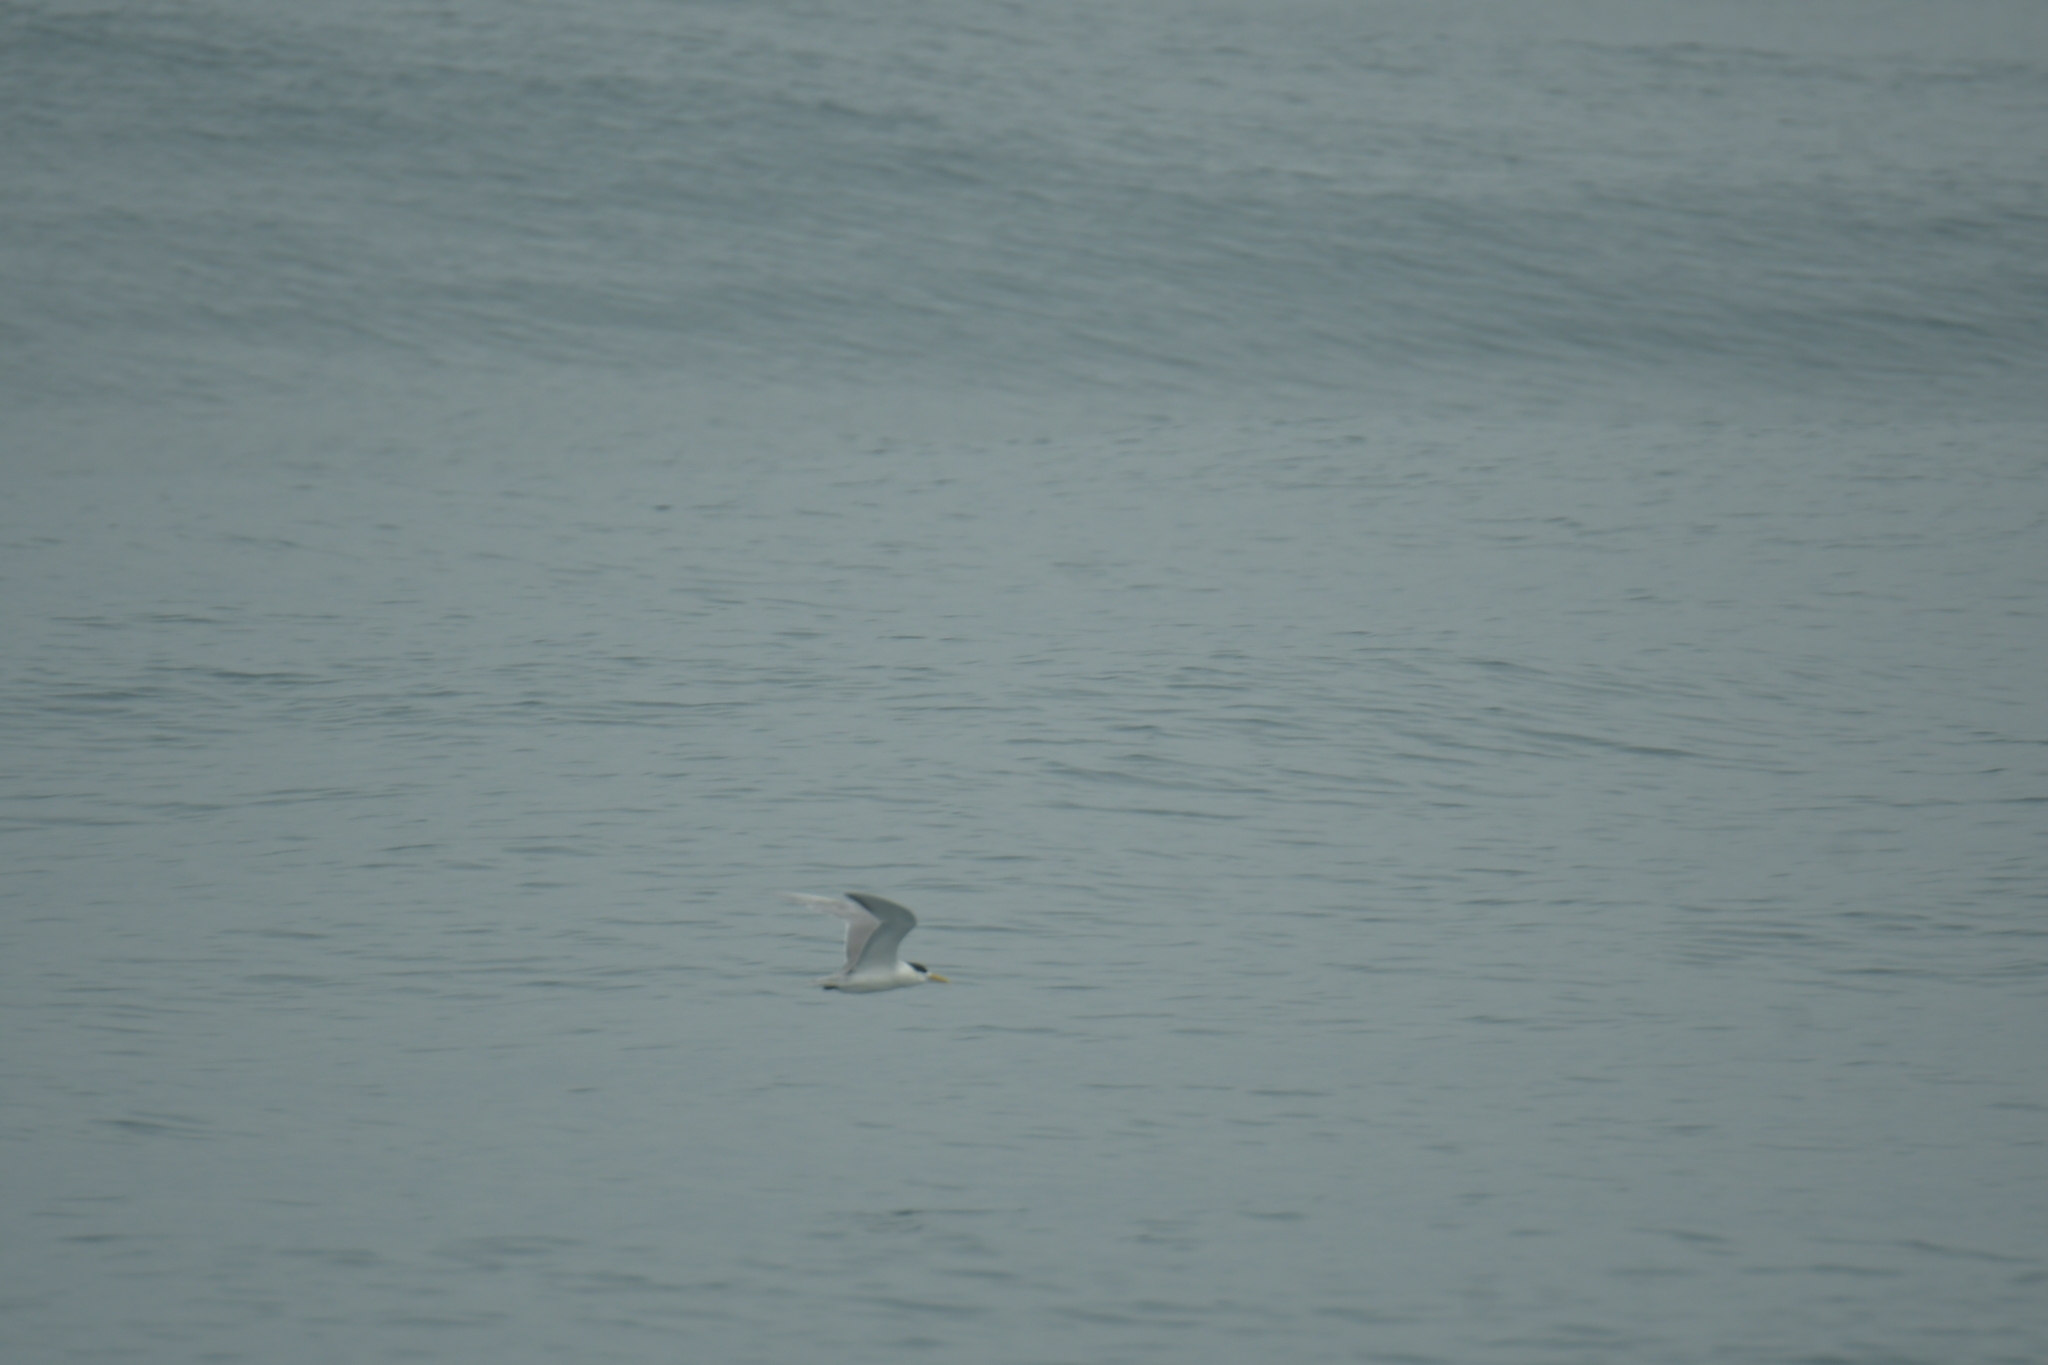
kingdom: Animalia
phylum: Chordata
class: Aves
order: Charadriiformes
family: Laridae
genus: Thalasseus
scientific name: Thalasseus bergii
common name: Greater crested tern
